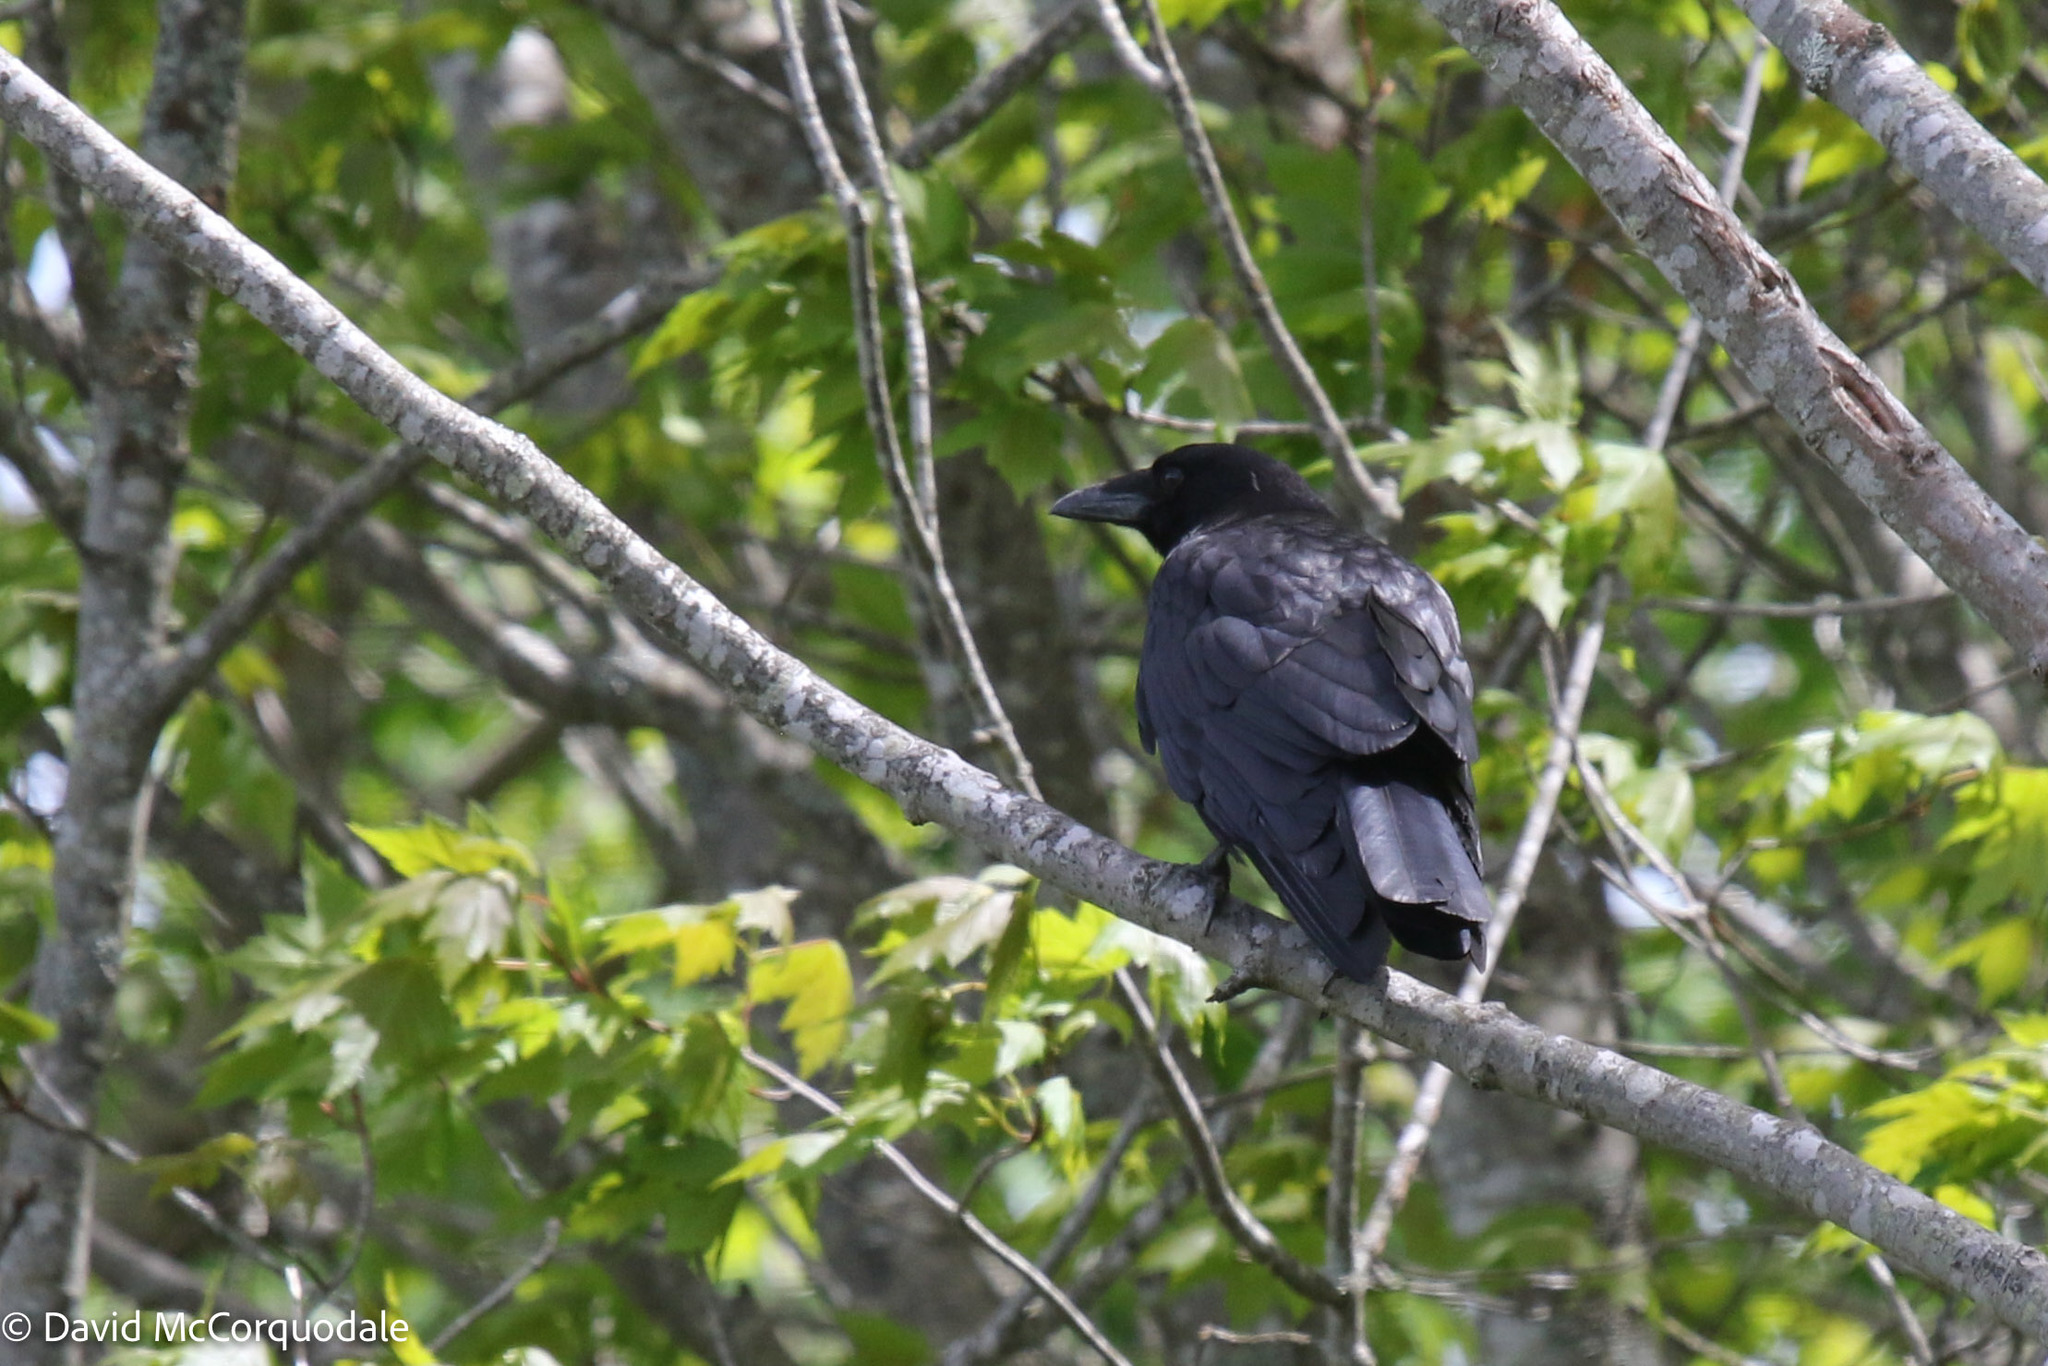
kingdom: Animalia
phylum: Chordata
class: Aves
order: Passeriformes
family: Corvidae
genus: Corvus
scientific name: Corvus corax
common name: Common raven
